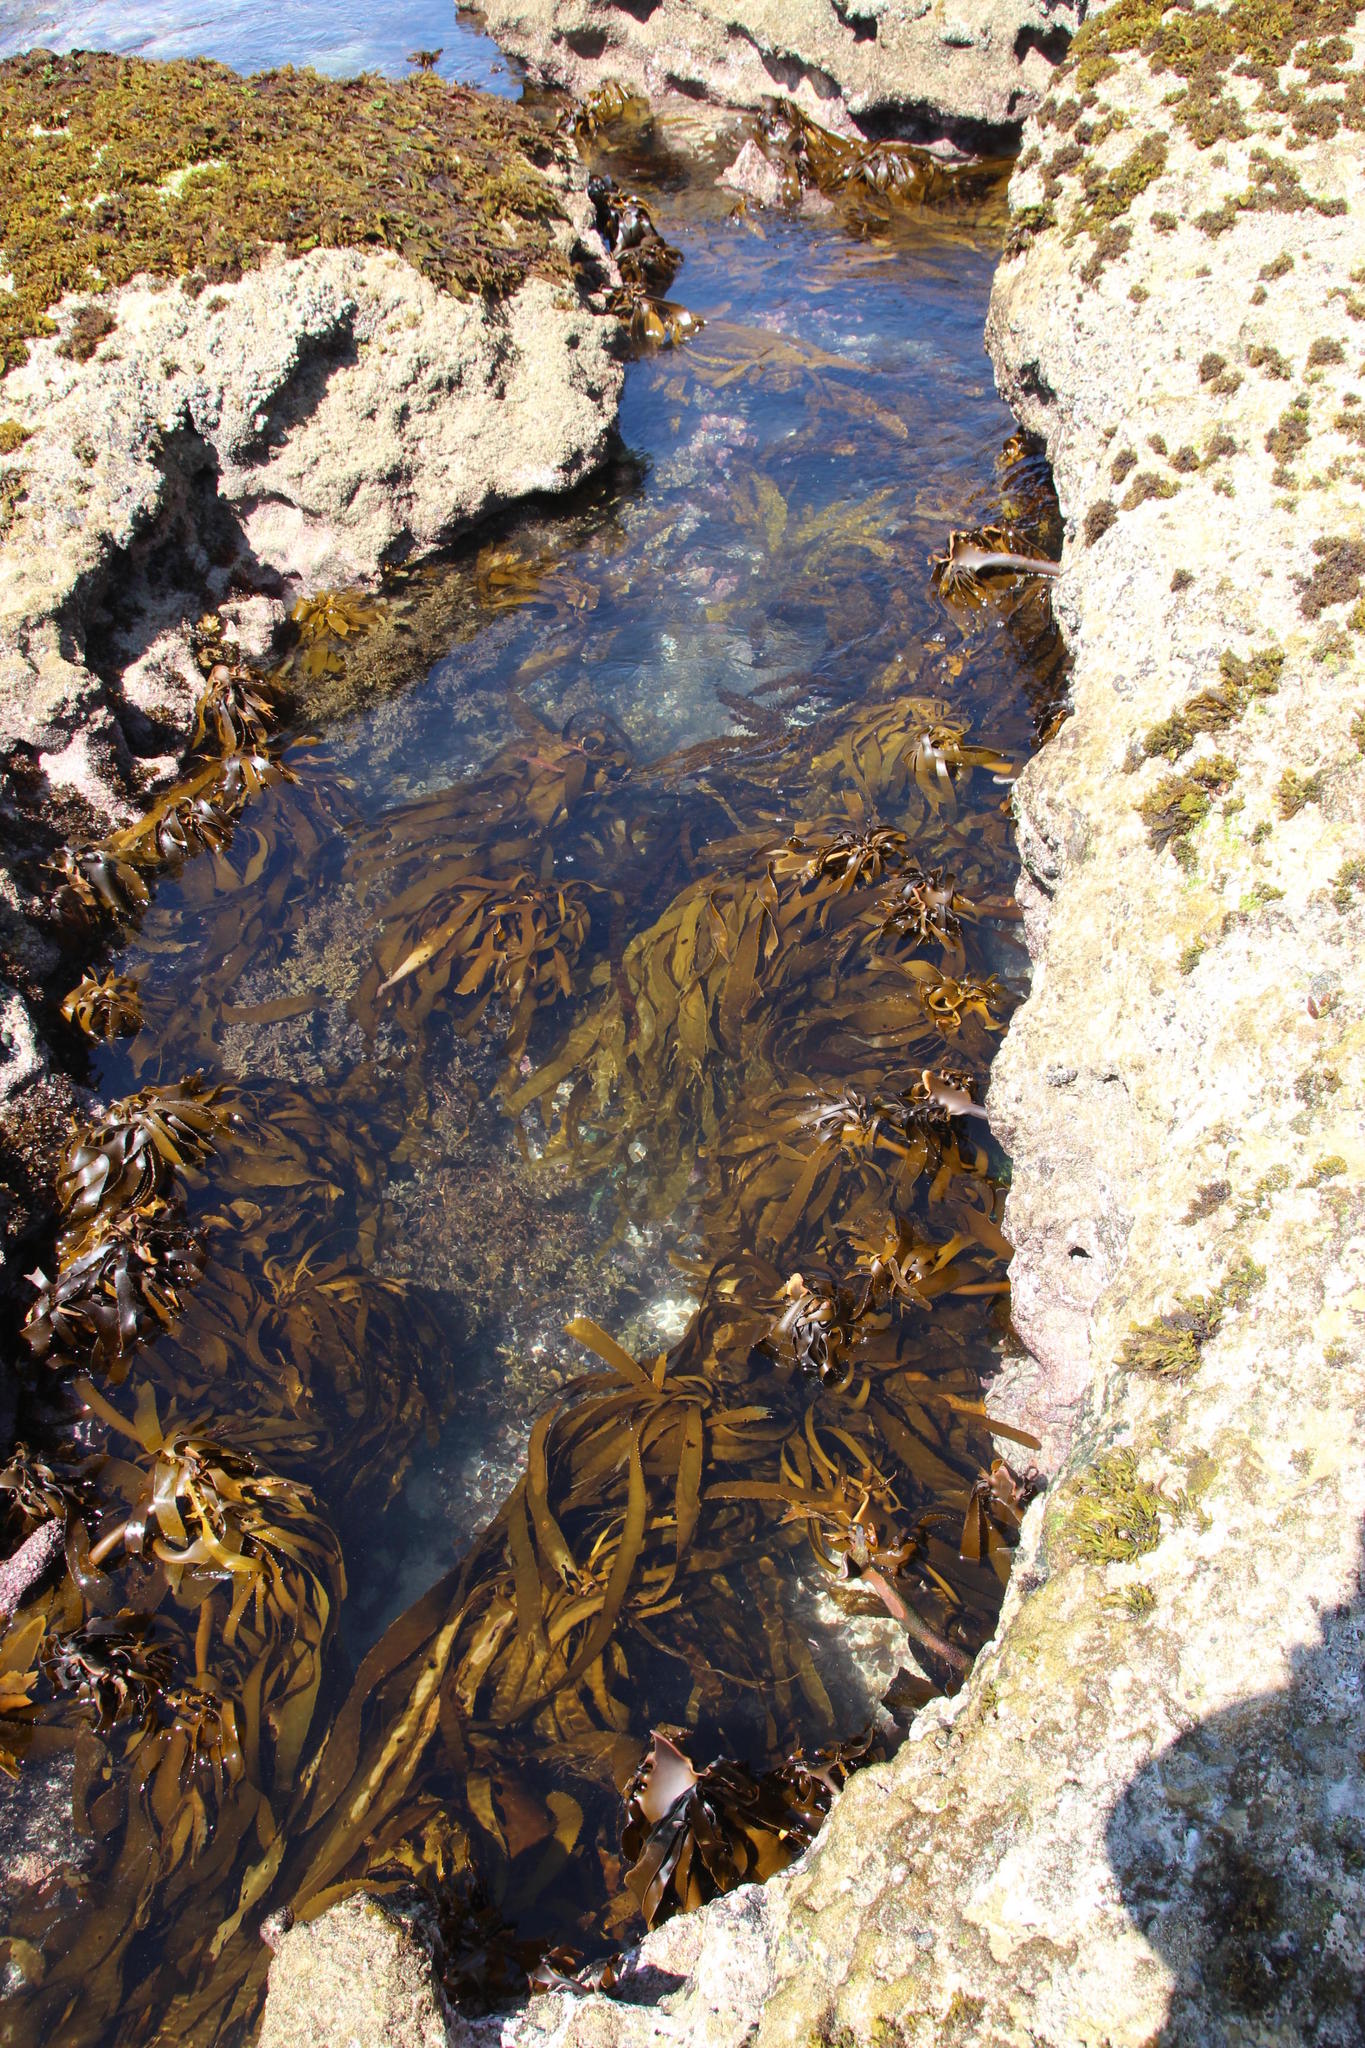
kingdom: Chromista
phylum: Ochrophyta
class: Phaeophyceae
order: Laminariales
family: Lessoniaceae
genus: Ecklonia
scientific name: Ecklonia
